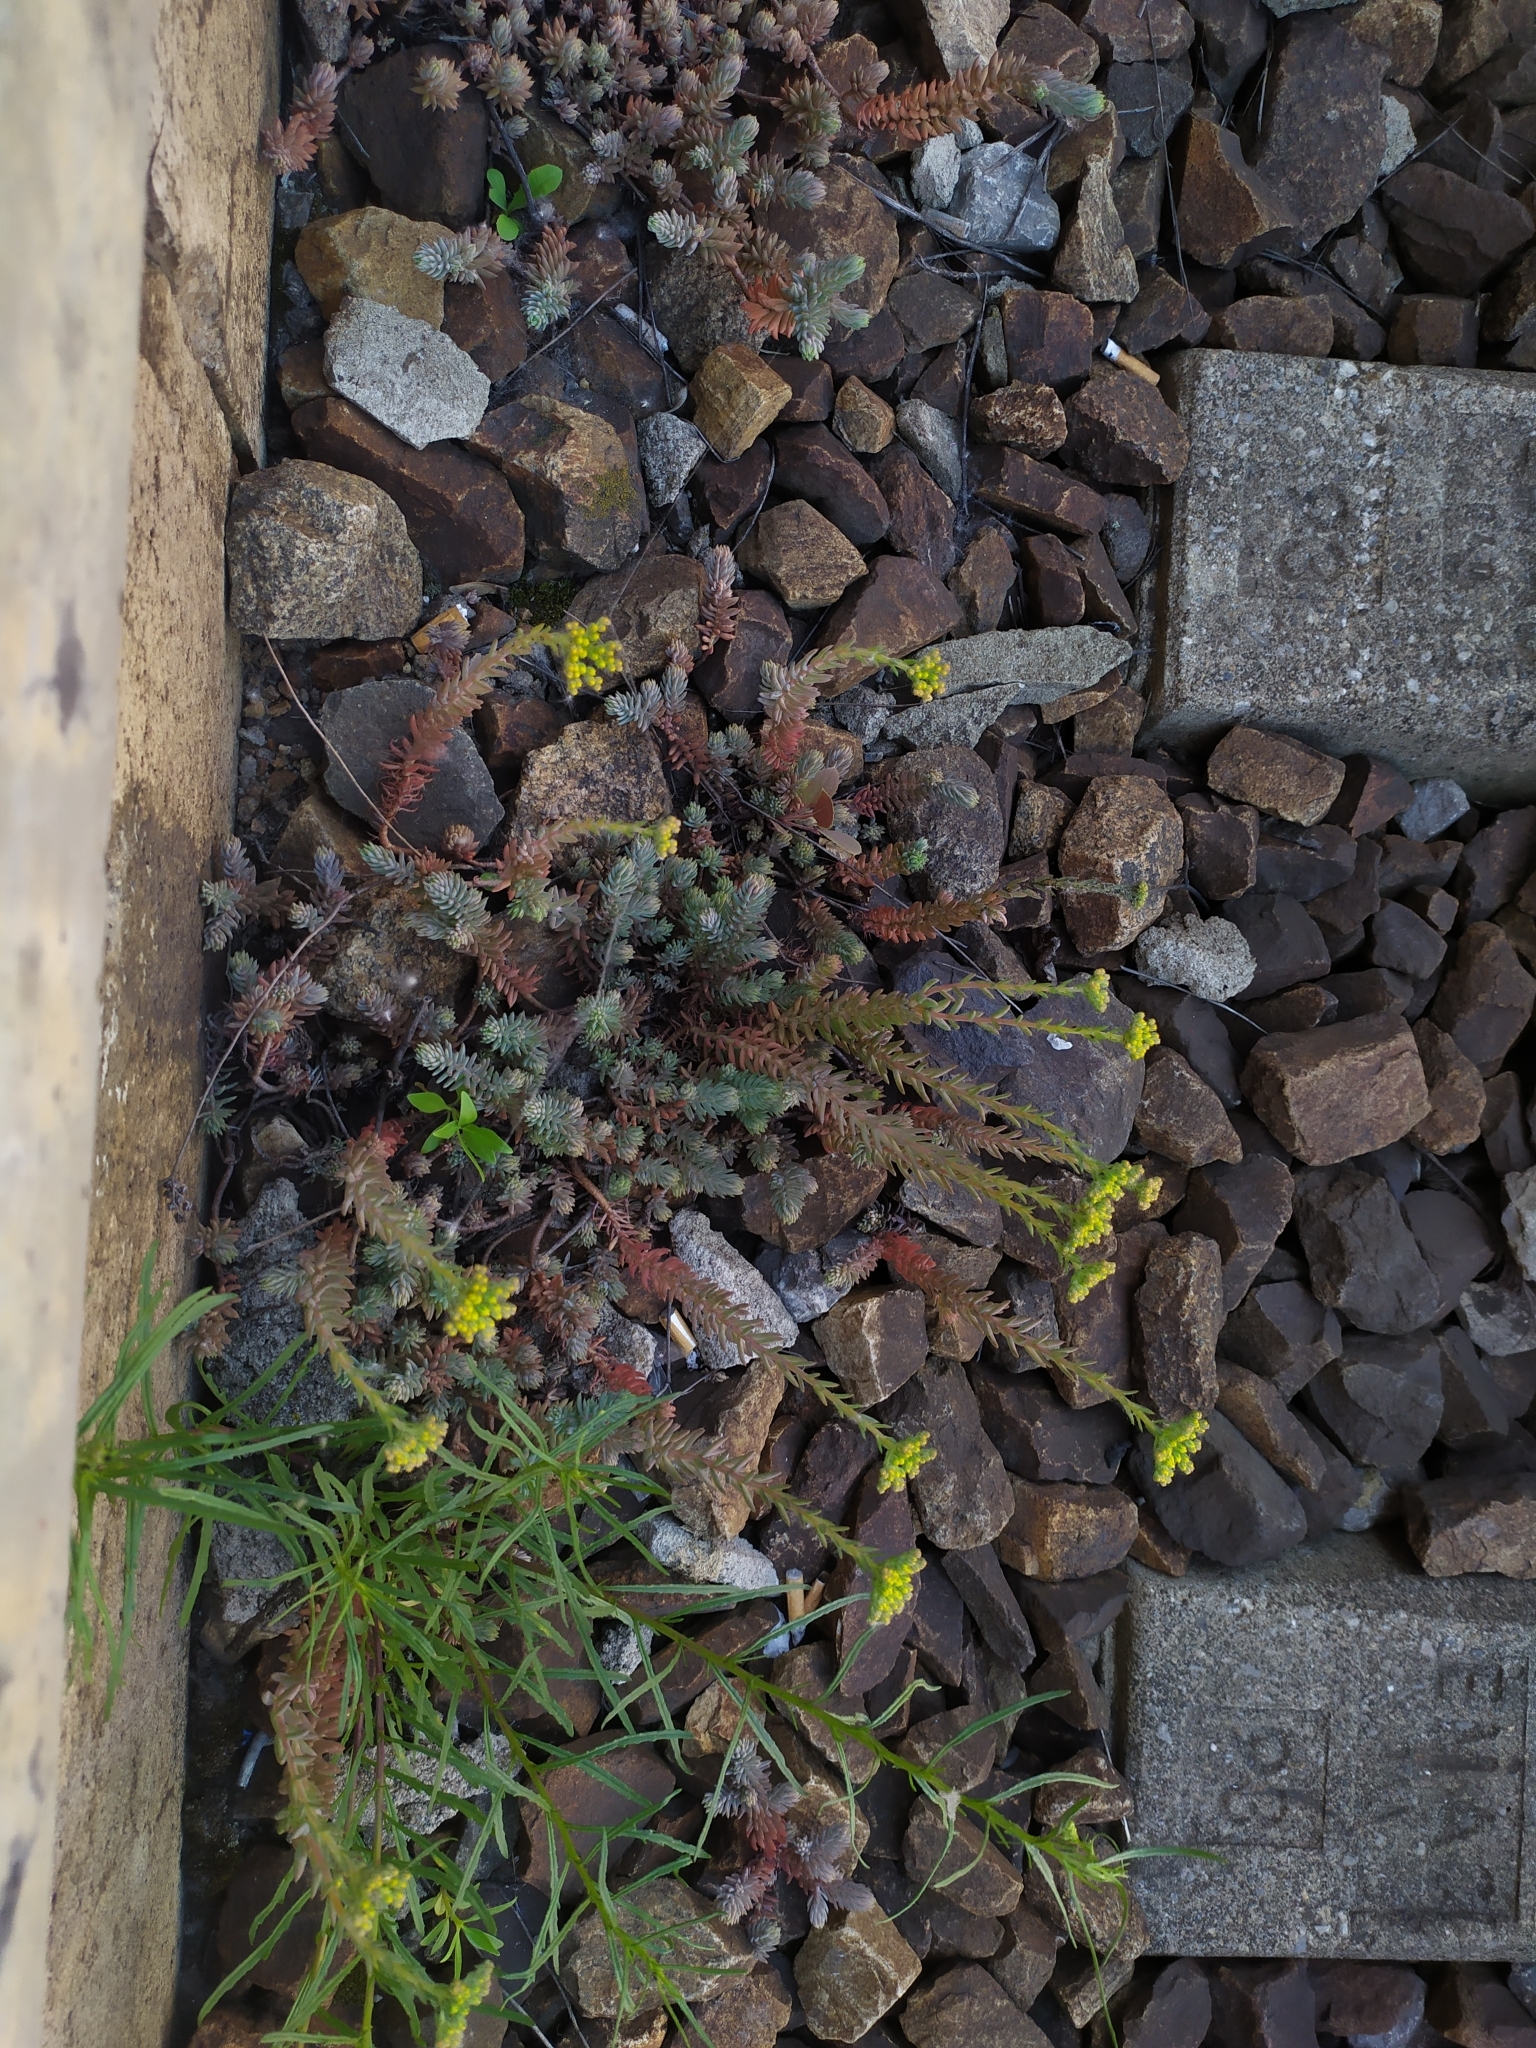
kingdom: Plantae
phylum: Tracheophyta
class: Magnoliopsida
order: Saxifragales
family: Crassulaceae
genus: Petrosedum
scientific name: Petrosedum orientale
